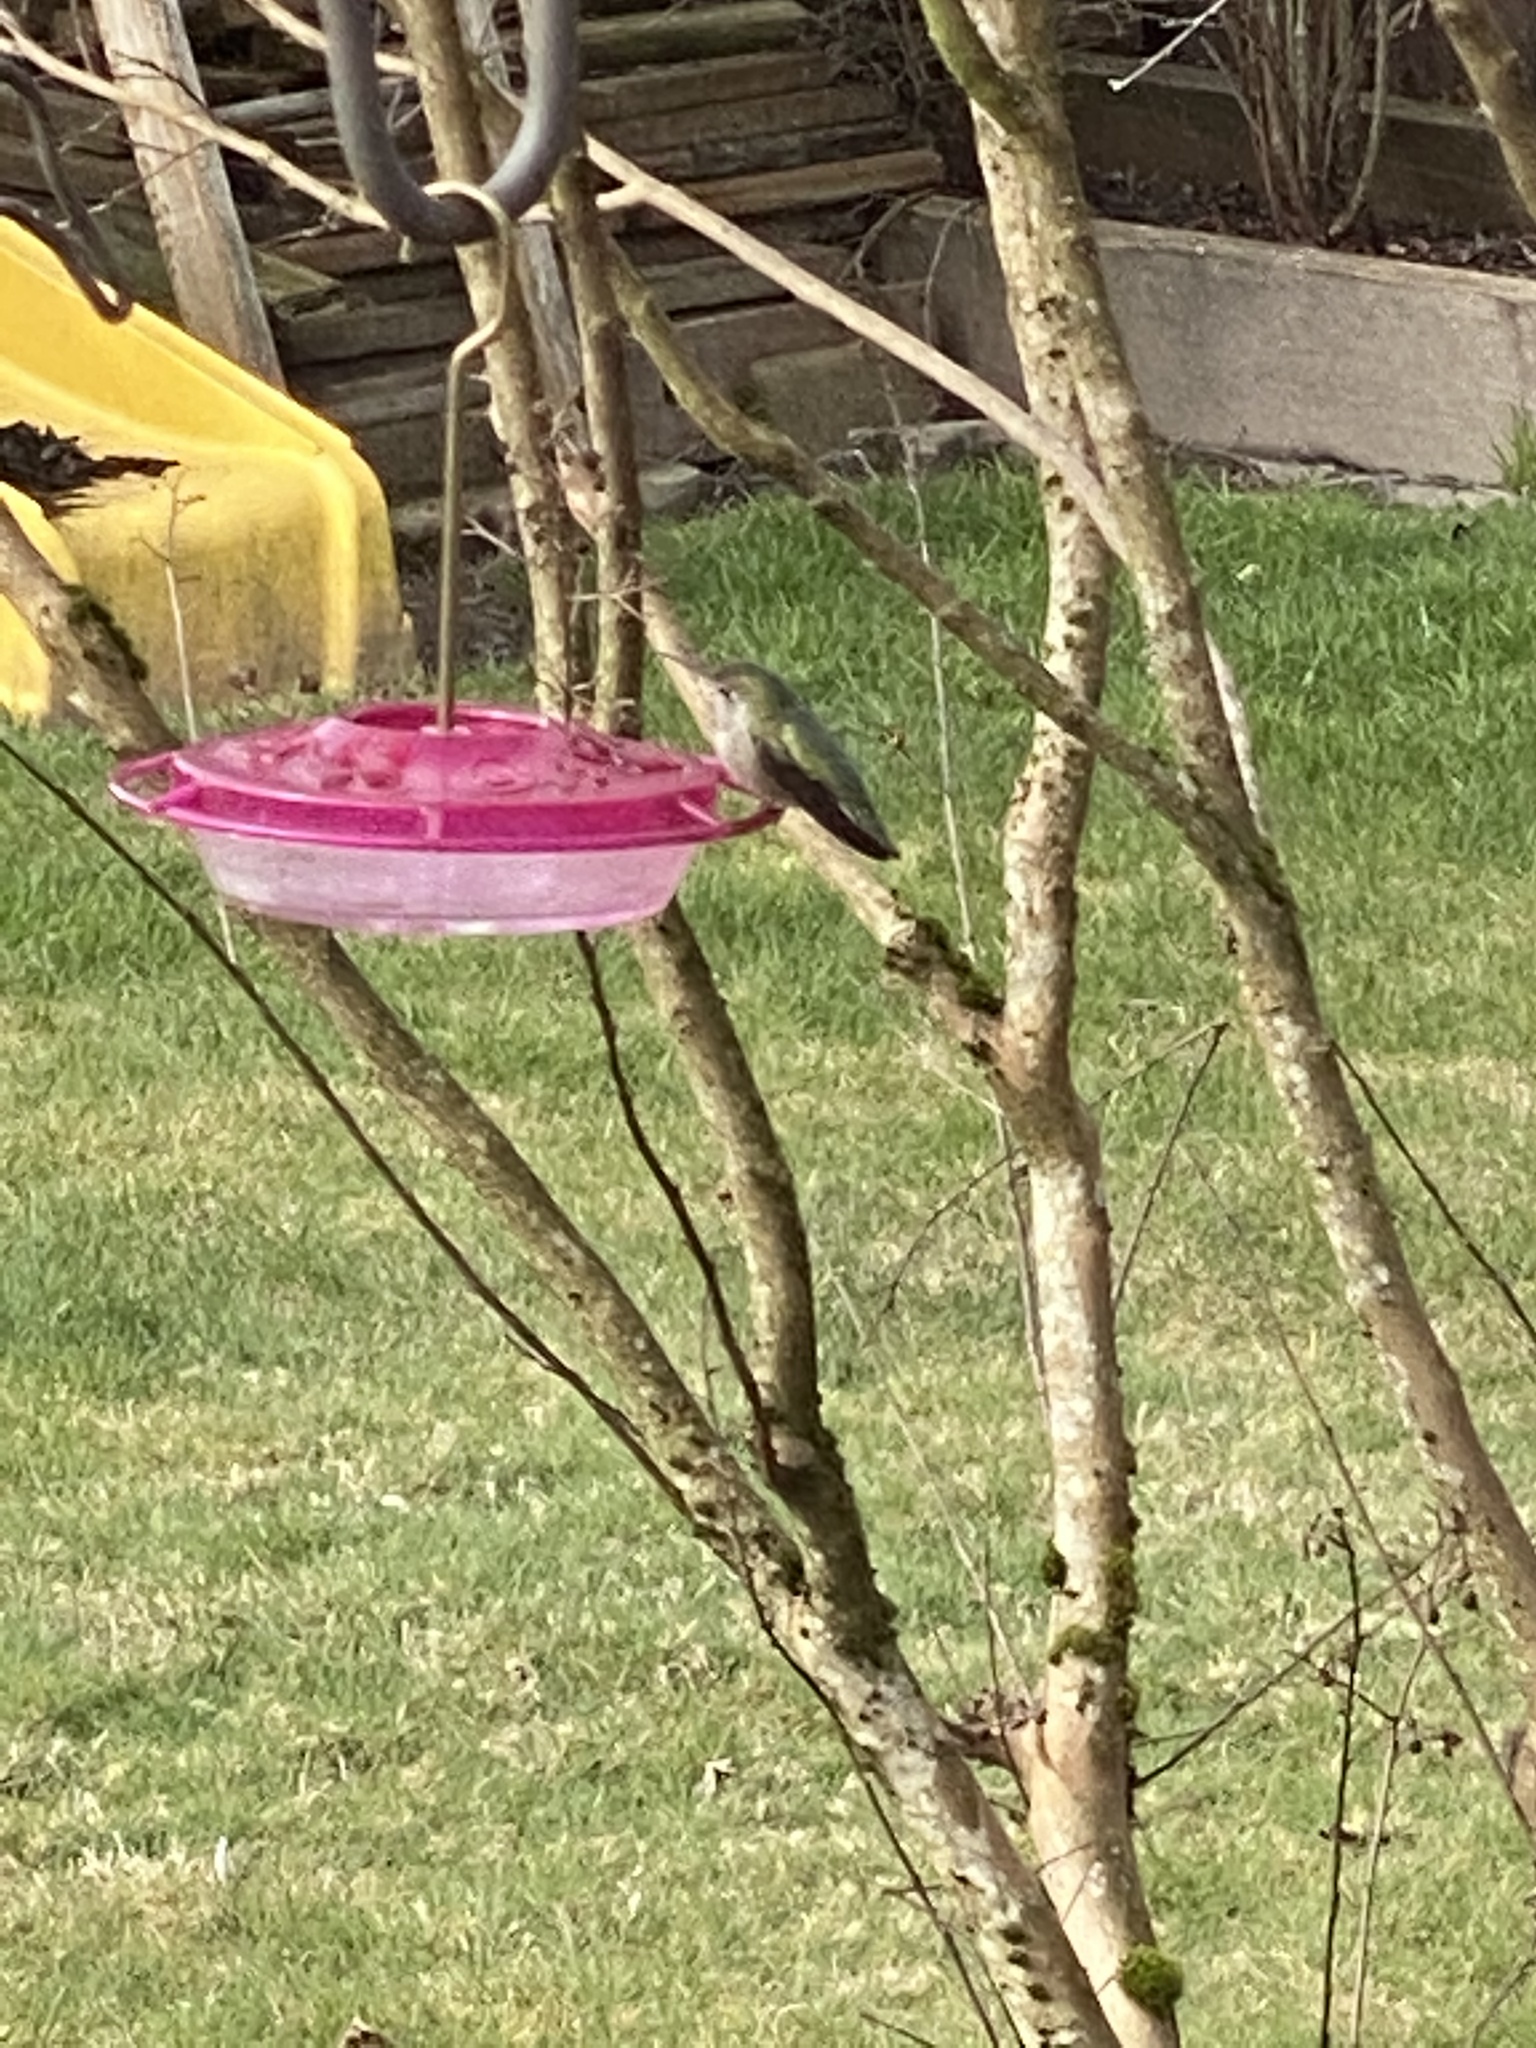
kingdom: Animalia
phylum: Chordata
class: Aves
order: Apodiformes
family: Trochilidae
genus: Calypte
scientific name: Calypte anna
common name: Anna's hummingbird
